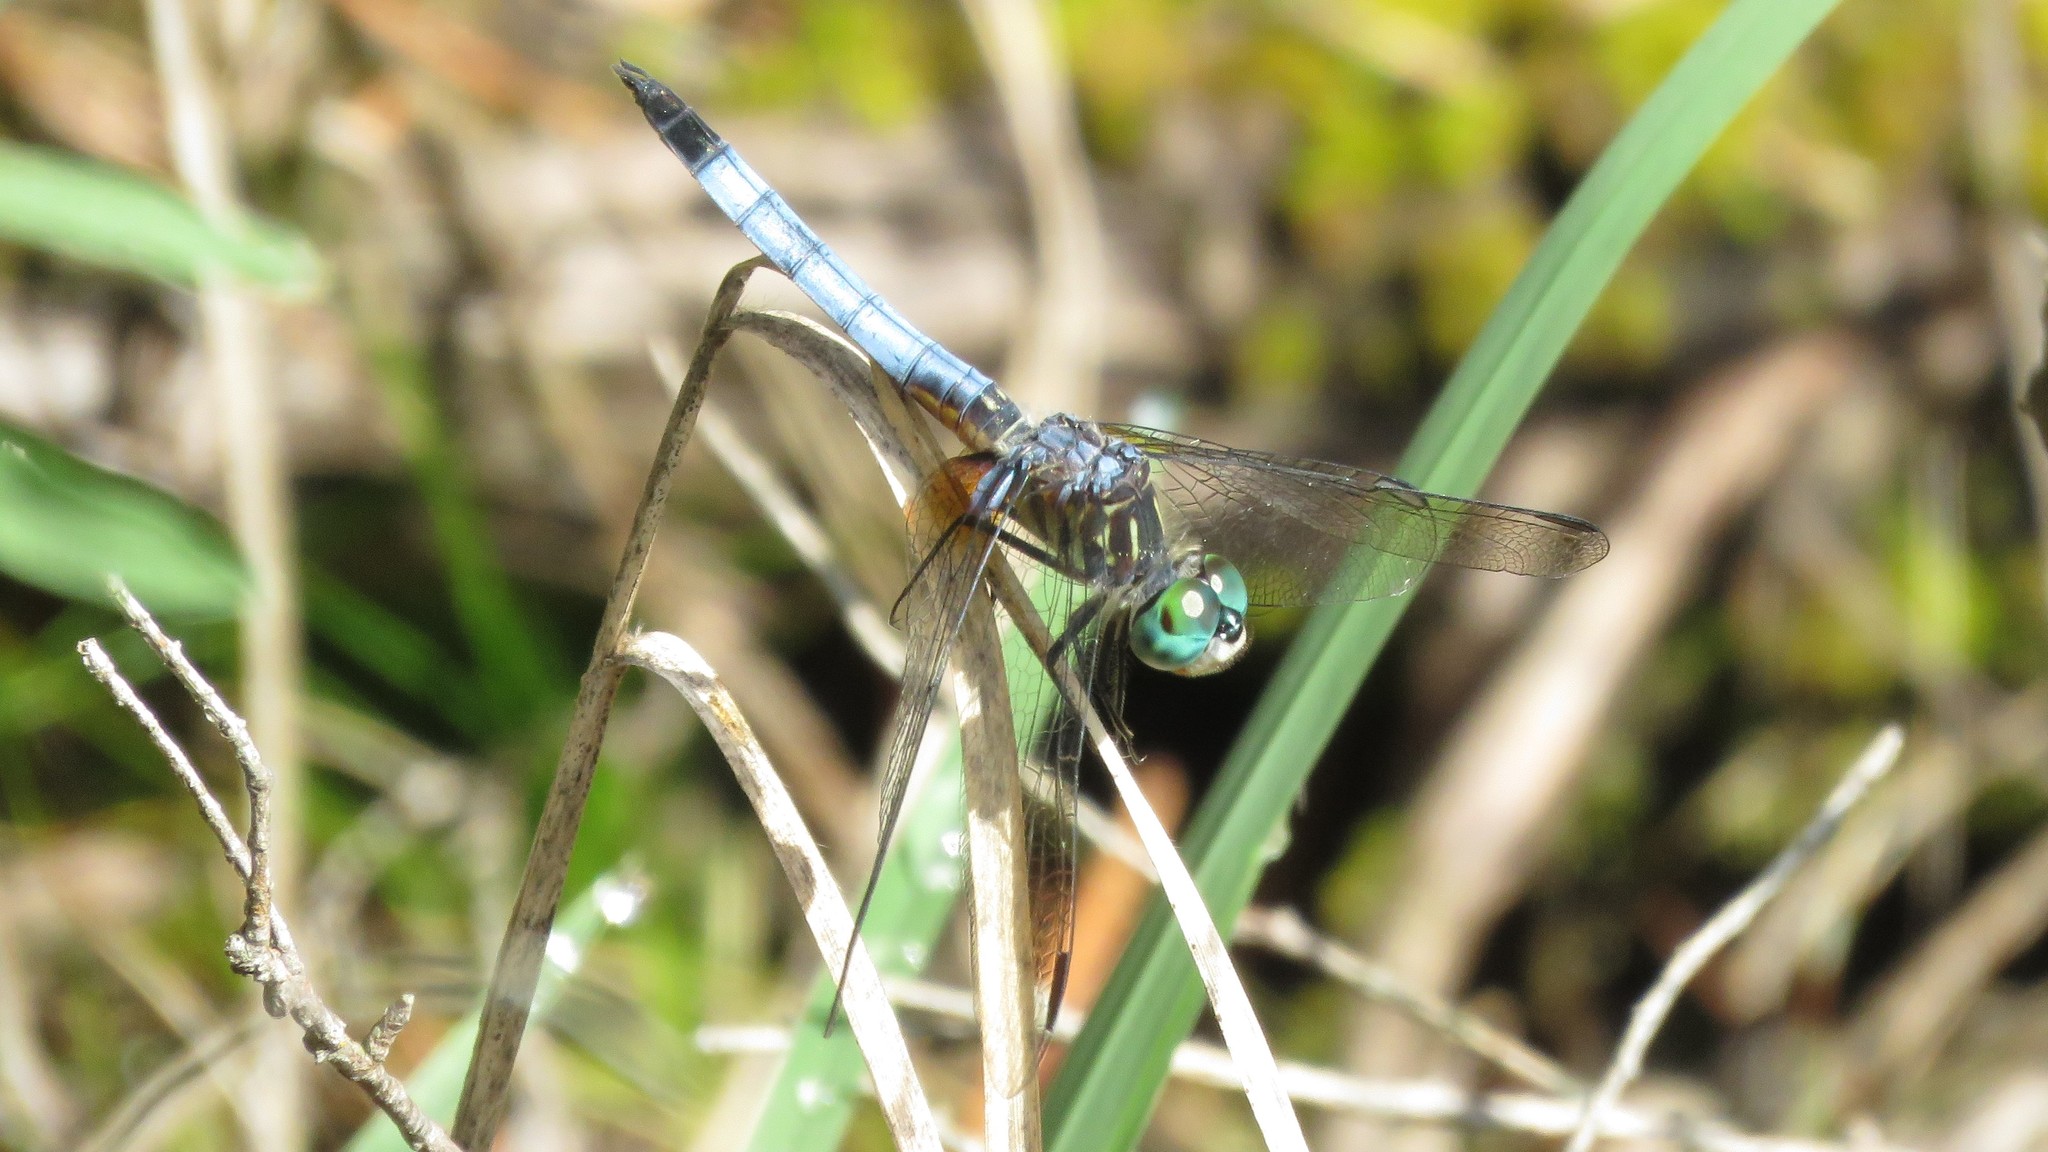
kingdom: Animalia
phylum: Arthropoda
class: Insecta
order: Odonata
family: Libellulidae
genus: Pachydiplax
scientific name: Pachydiplax longipennis
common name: Blue dasher
